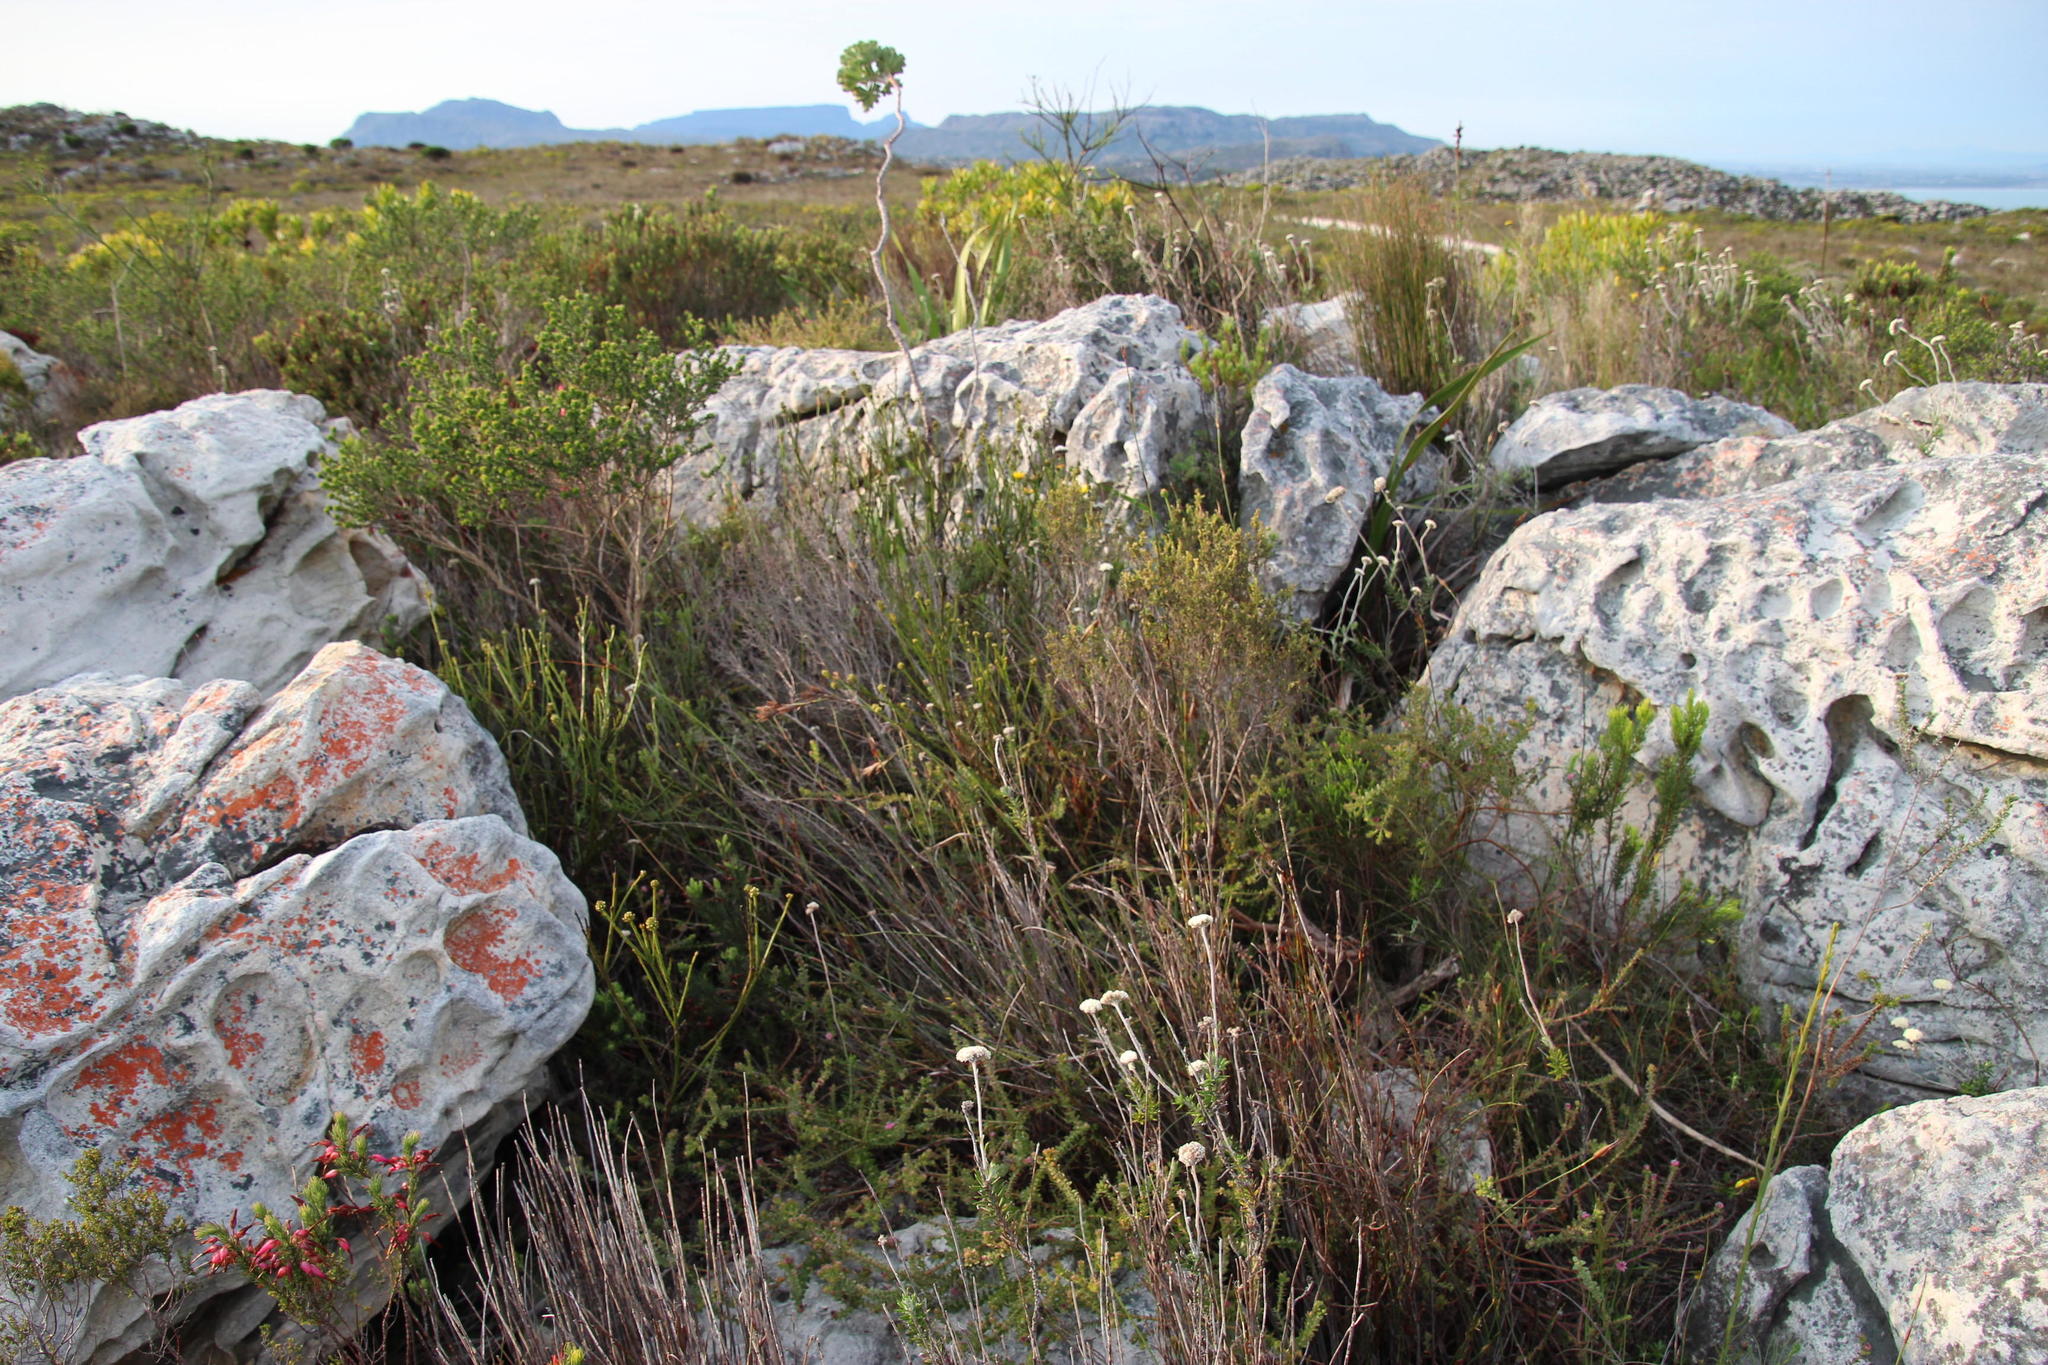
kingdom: Plantae
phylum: Tracheophyta
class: Magnoliopsida
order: Proteales
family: Proteaceae
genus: Diastella
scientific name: Diastella divaricata
